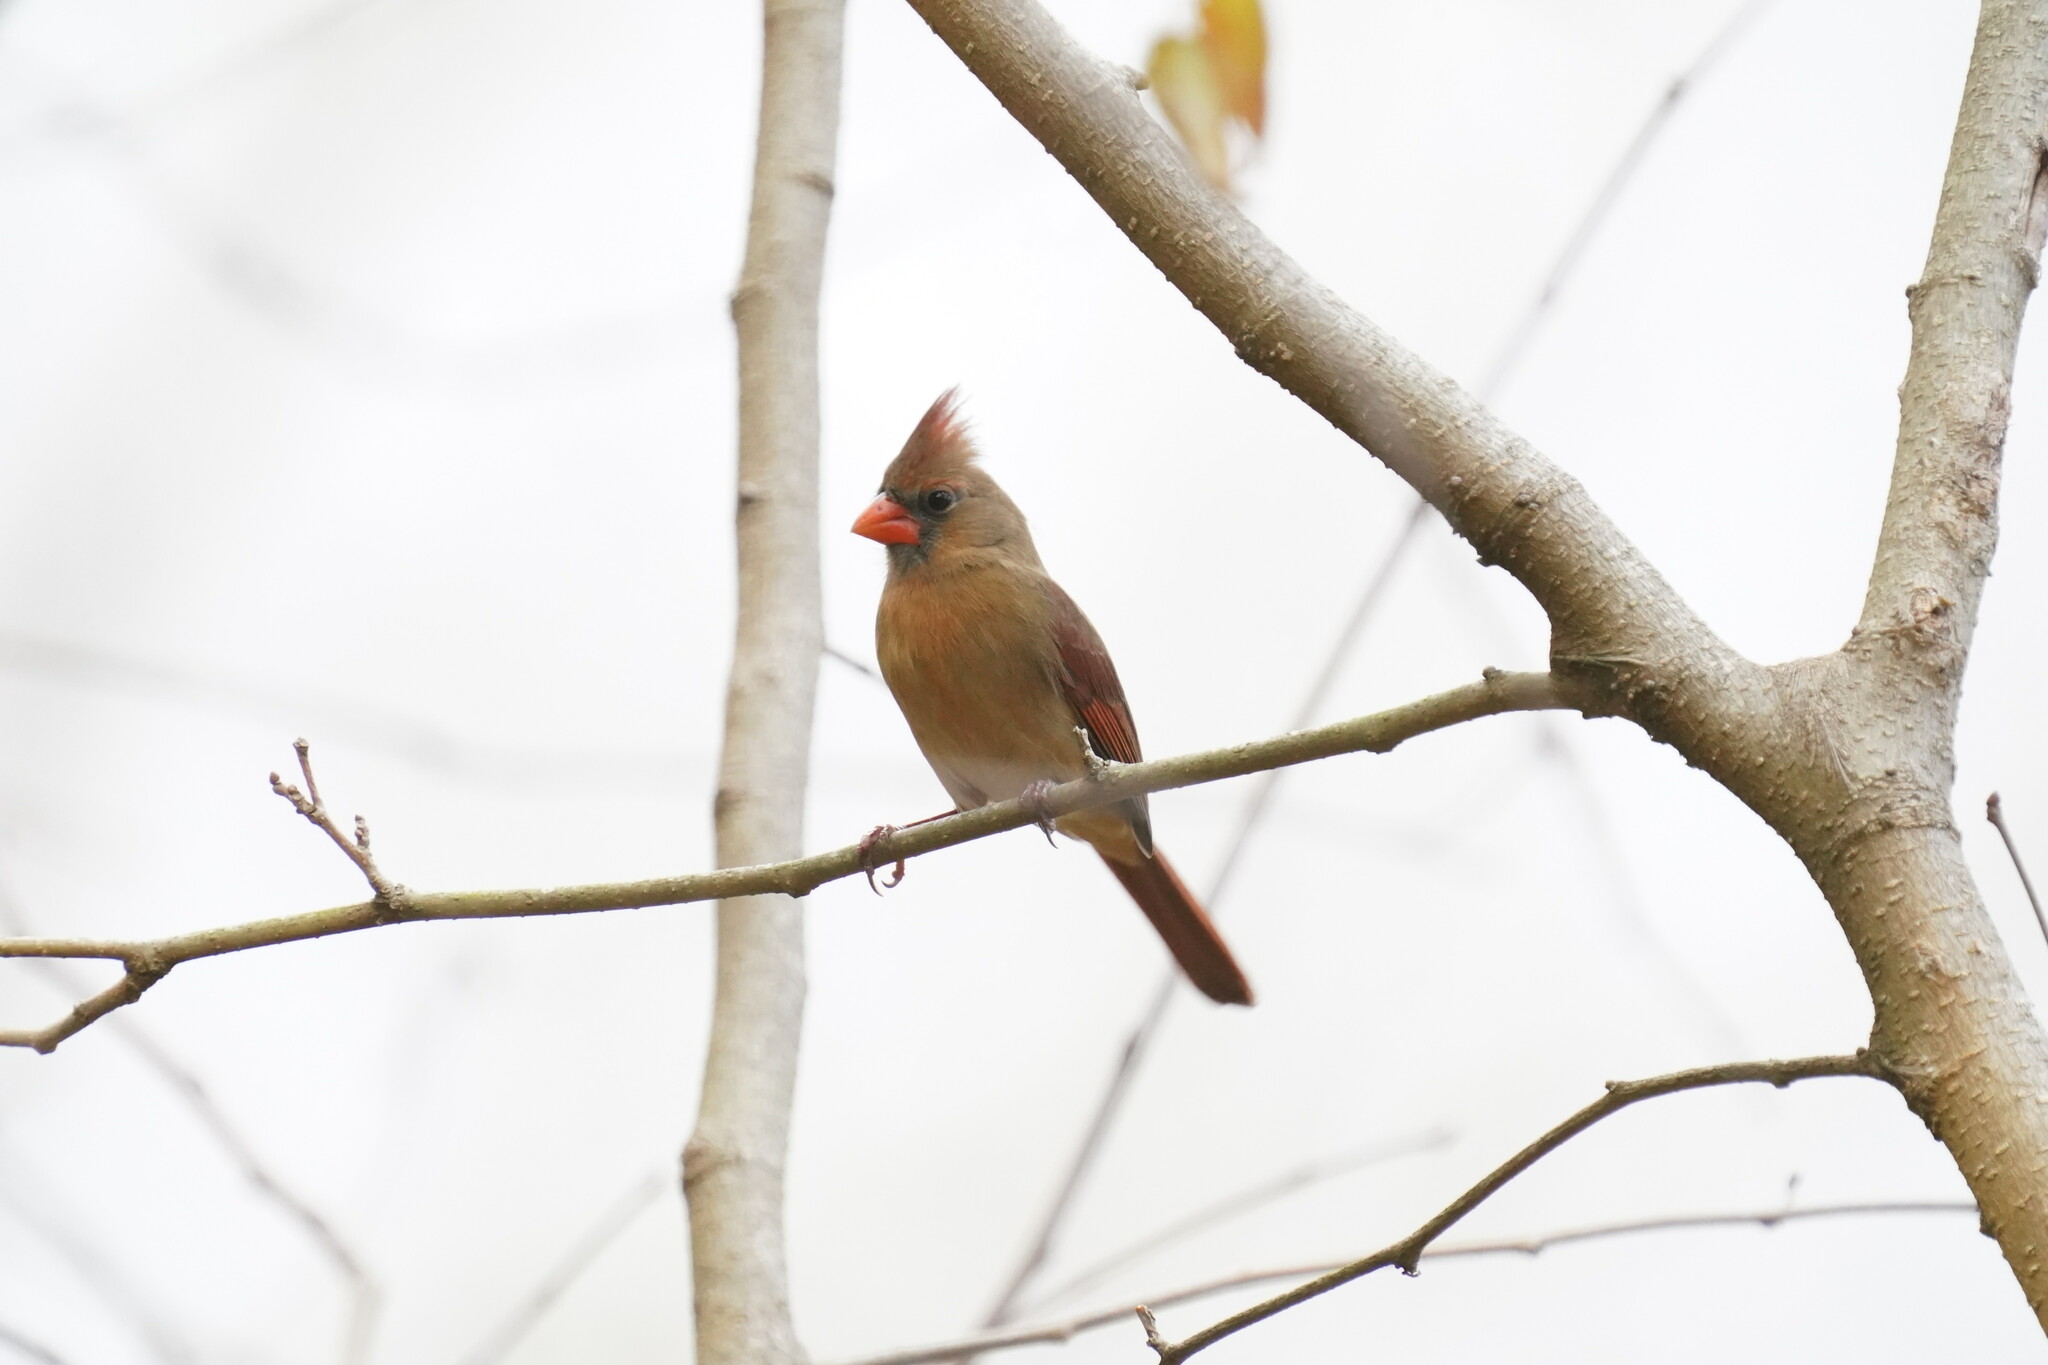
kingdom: Animalia
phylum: Chordata
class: Aves
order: Passeriformes
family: Cardinalidae
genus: Cardinalis
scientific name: Cardinalis cardinalis
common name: Northern cardinal
